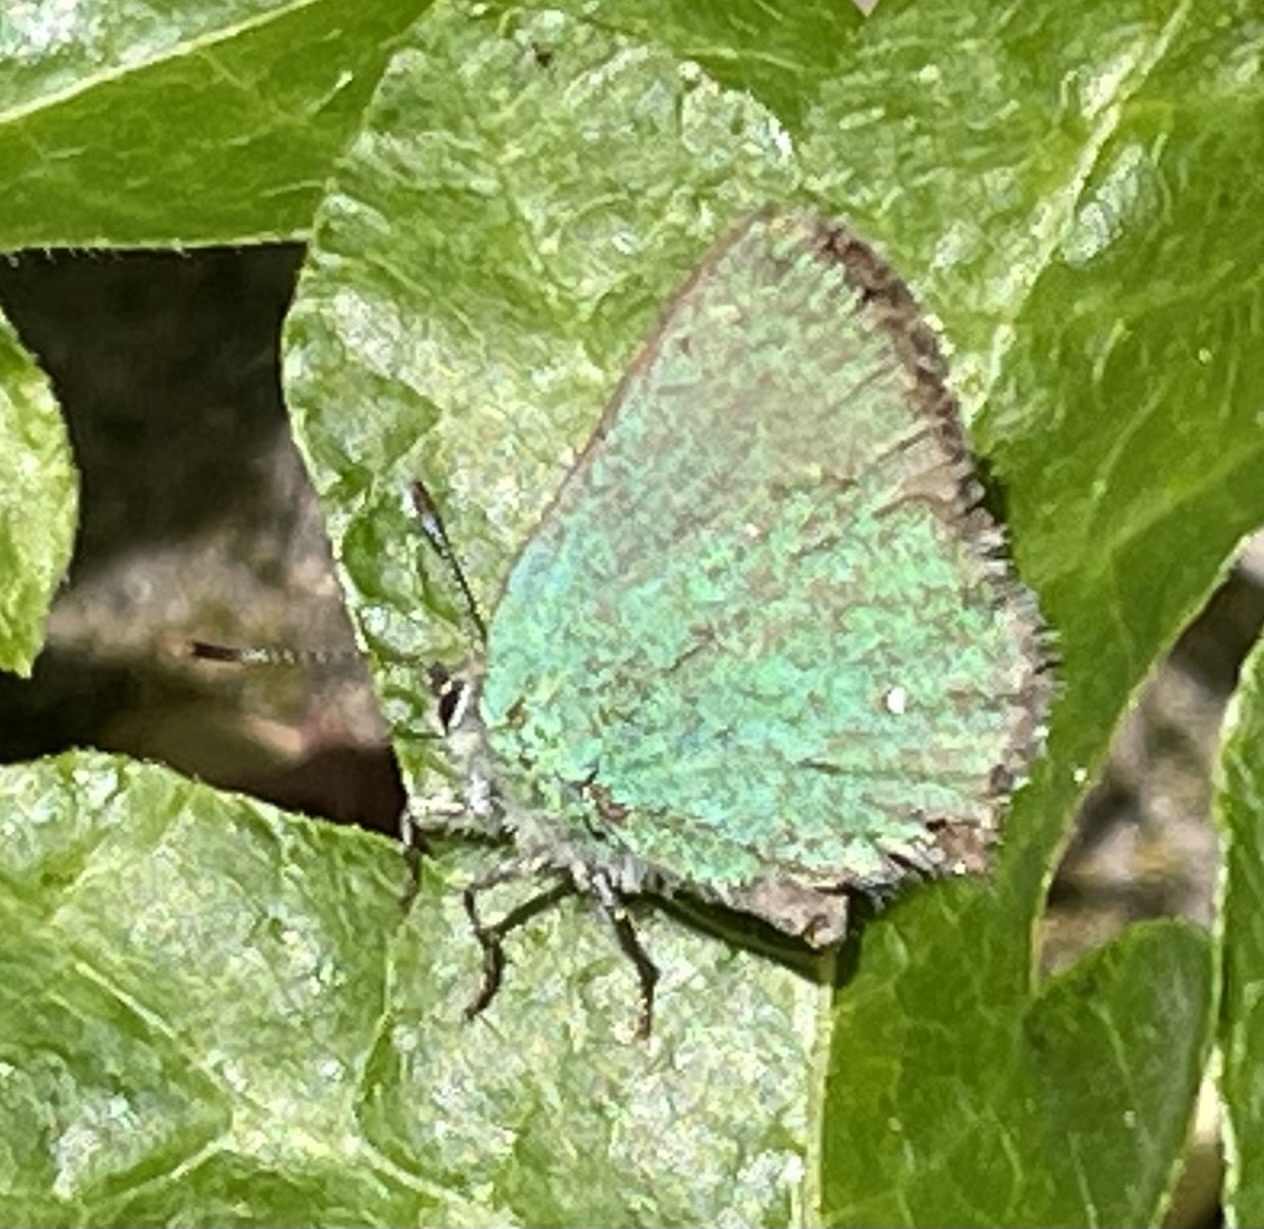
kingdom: Animalia
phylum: Arthropoda
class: Insecta
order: Lepidoptera
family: Lycaenidae
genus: Callophrys
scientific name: Callophrys dumetorum
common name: Bramble hairstreak
